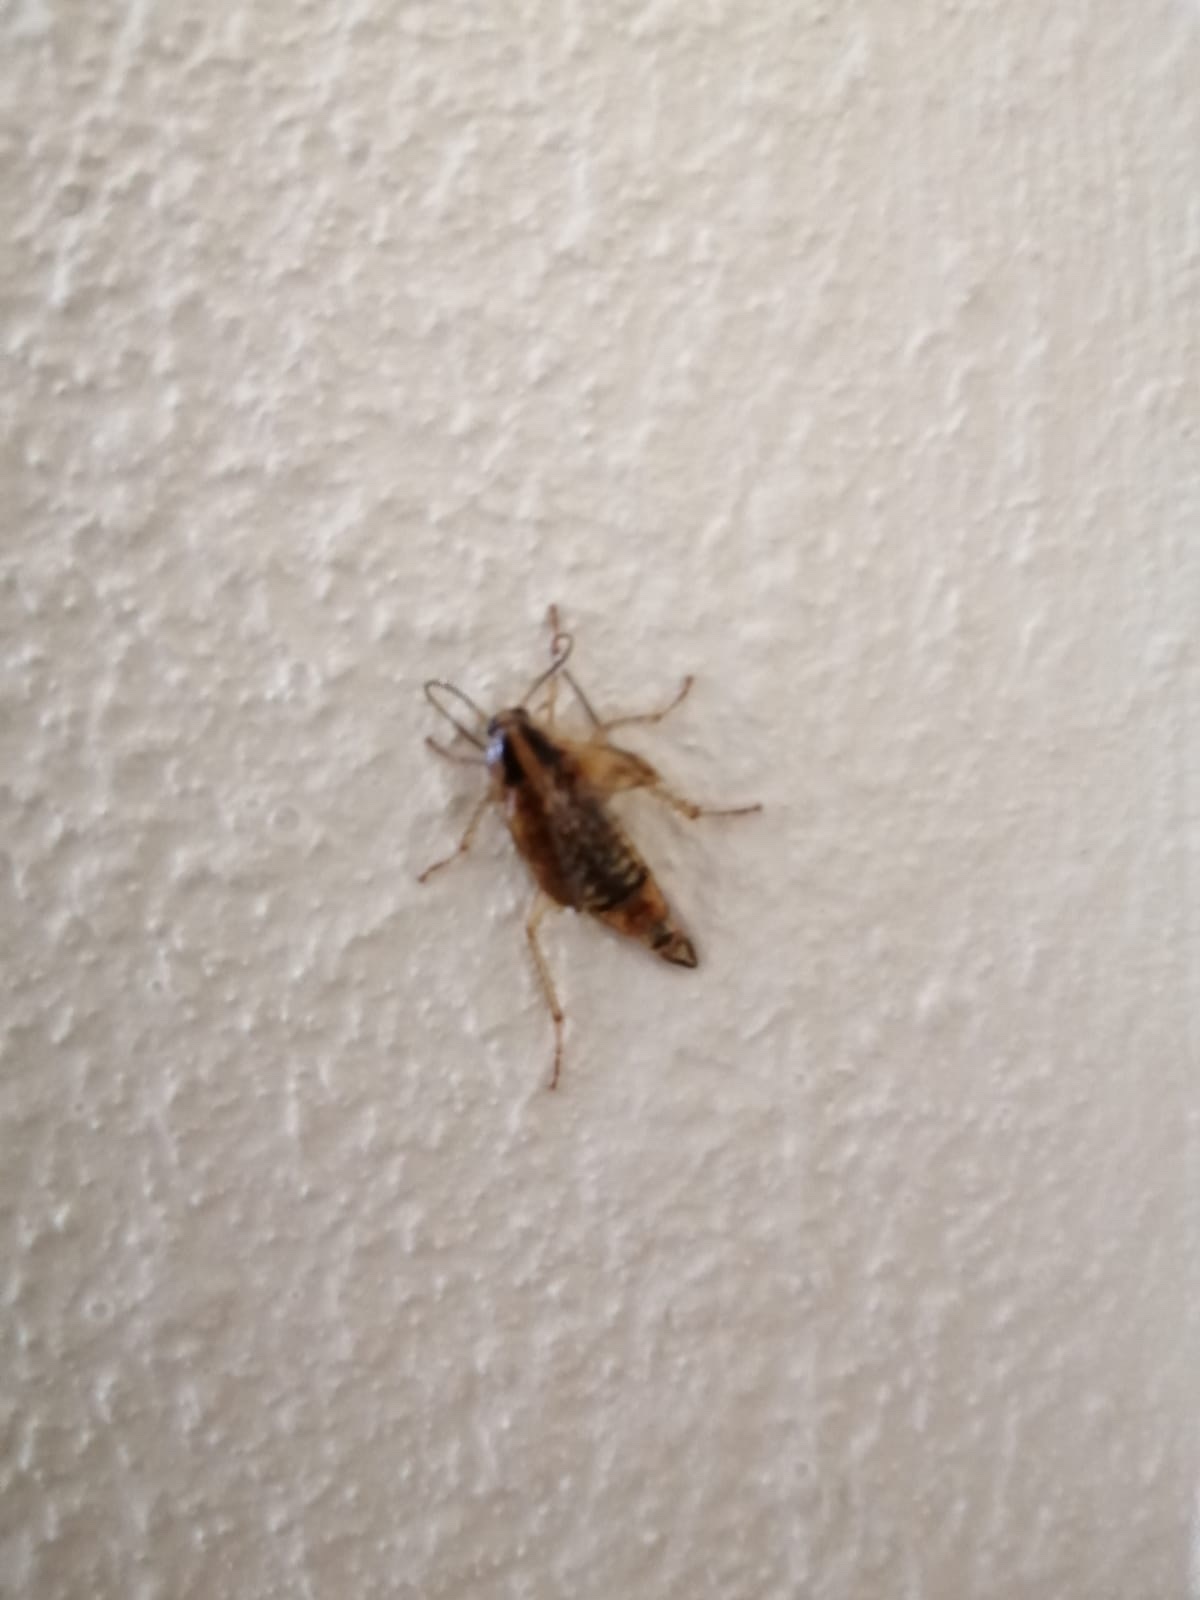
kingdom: Animalia
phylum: Arthropoda
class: Insecta
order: Blattodea
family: Ectobiidae
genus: Blattella
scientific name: Blattella germanica
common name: German cockroach
